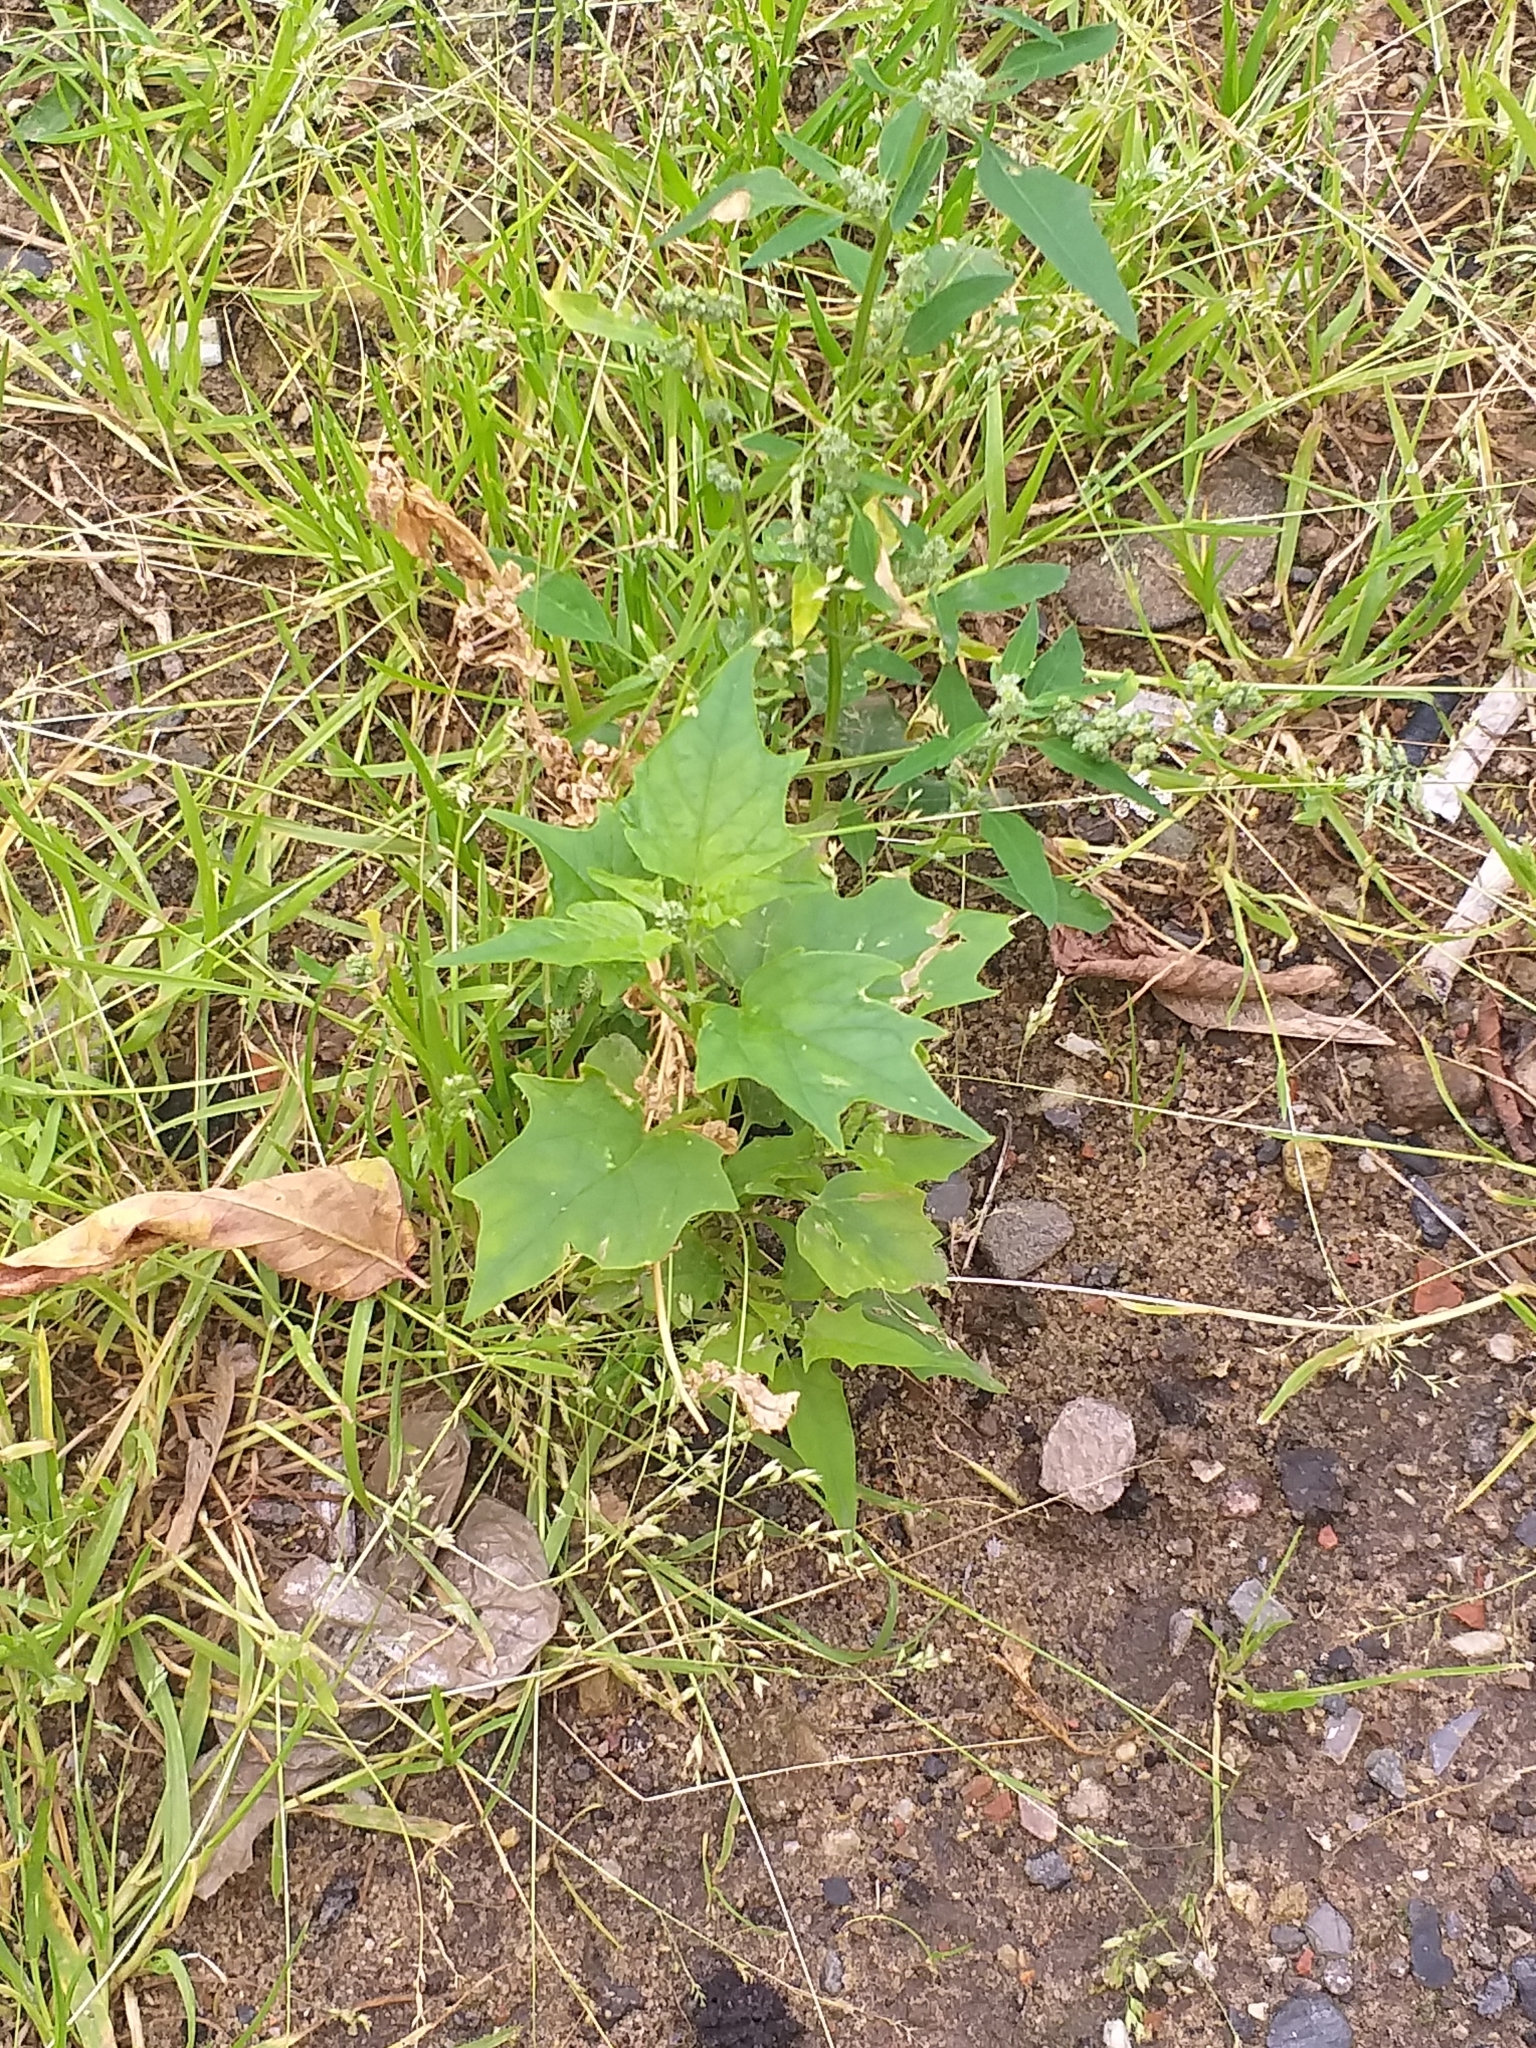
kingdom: Plantae
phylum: Tracheophyta
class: Magnoliopsida
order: Caryophyllales
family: Amaranthaceae
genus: Chenopodiastrum
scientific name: Chenopodiastrum hybridum
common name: Mapleleaf goosefoot
